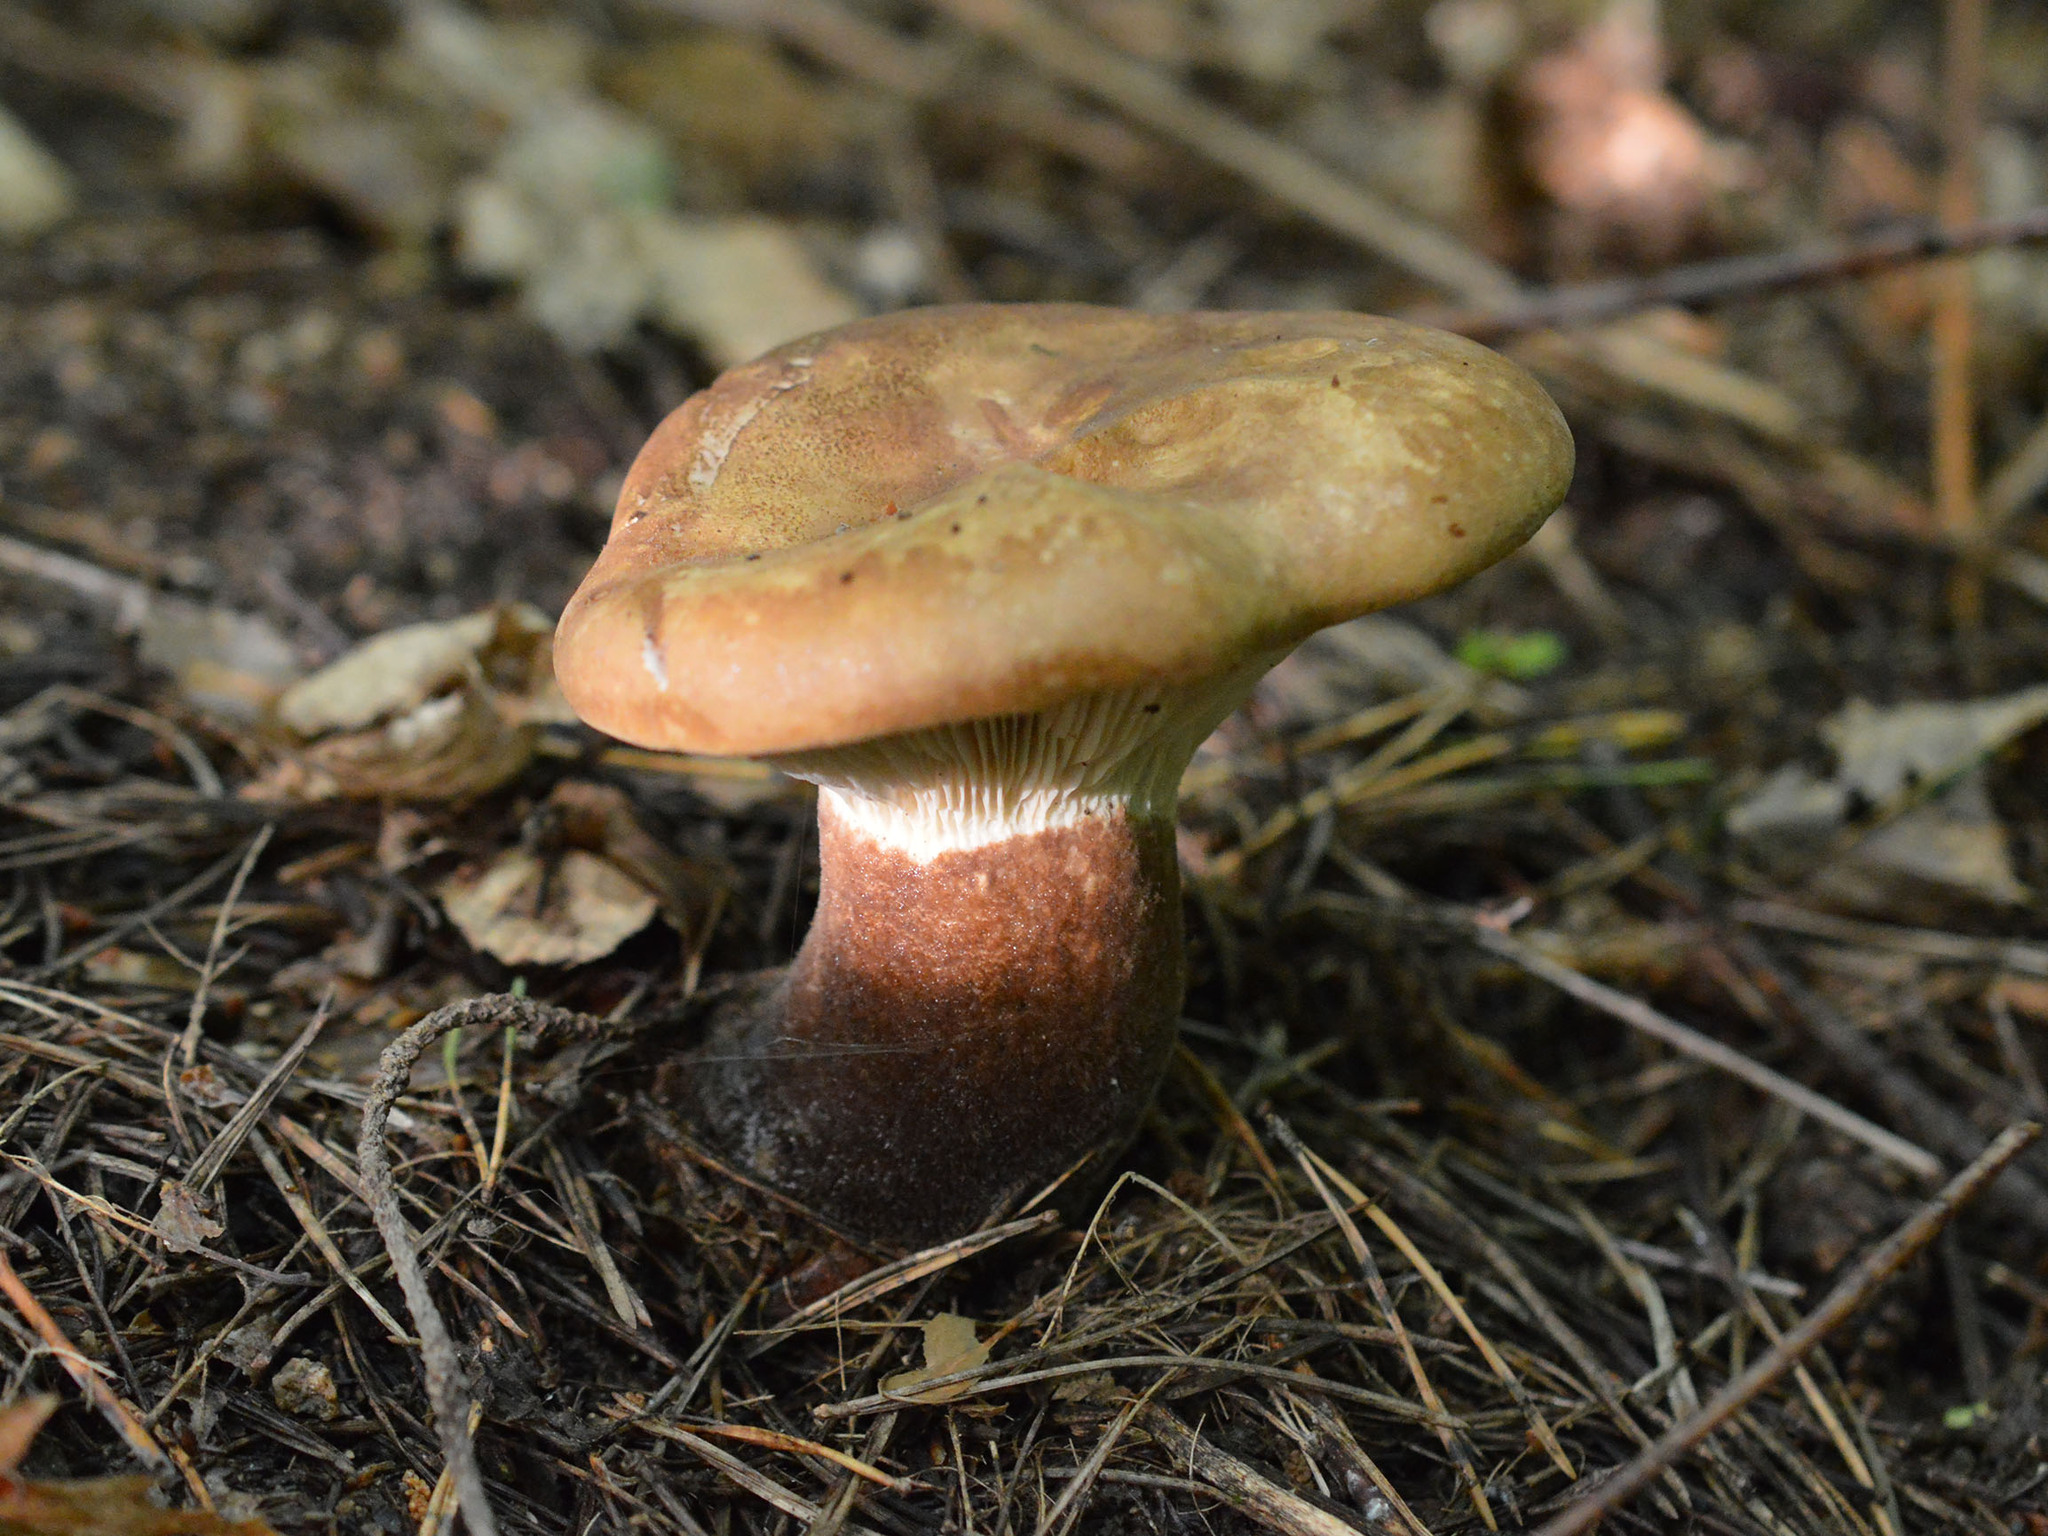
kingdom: Fungi
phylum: Basidiomycota
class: Agaricomycetes
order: Boletales
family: Tapinellaceae
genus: Tapinella
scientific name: Tapinella atrotomentosa
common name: Velvet rollrim
